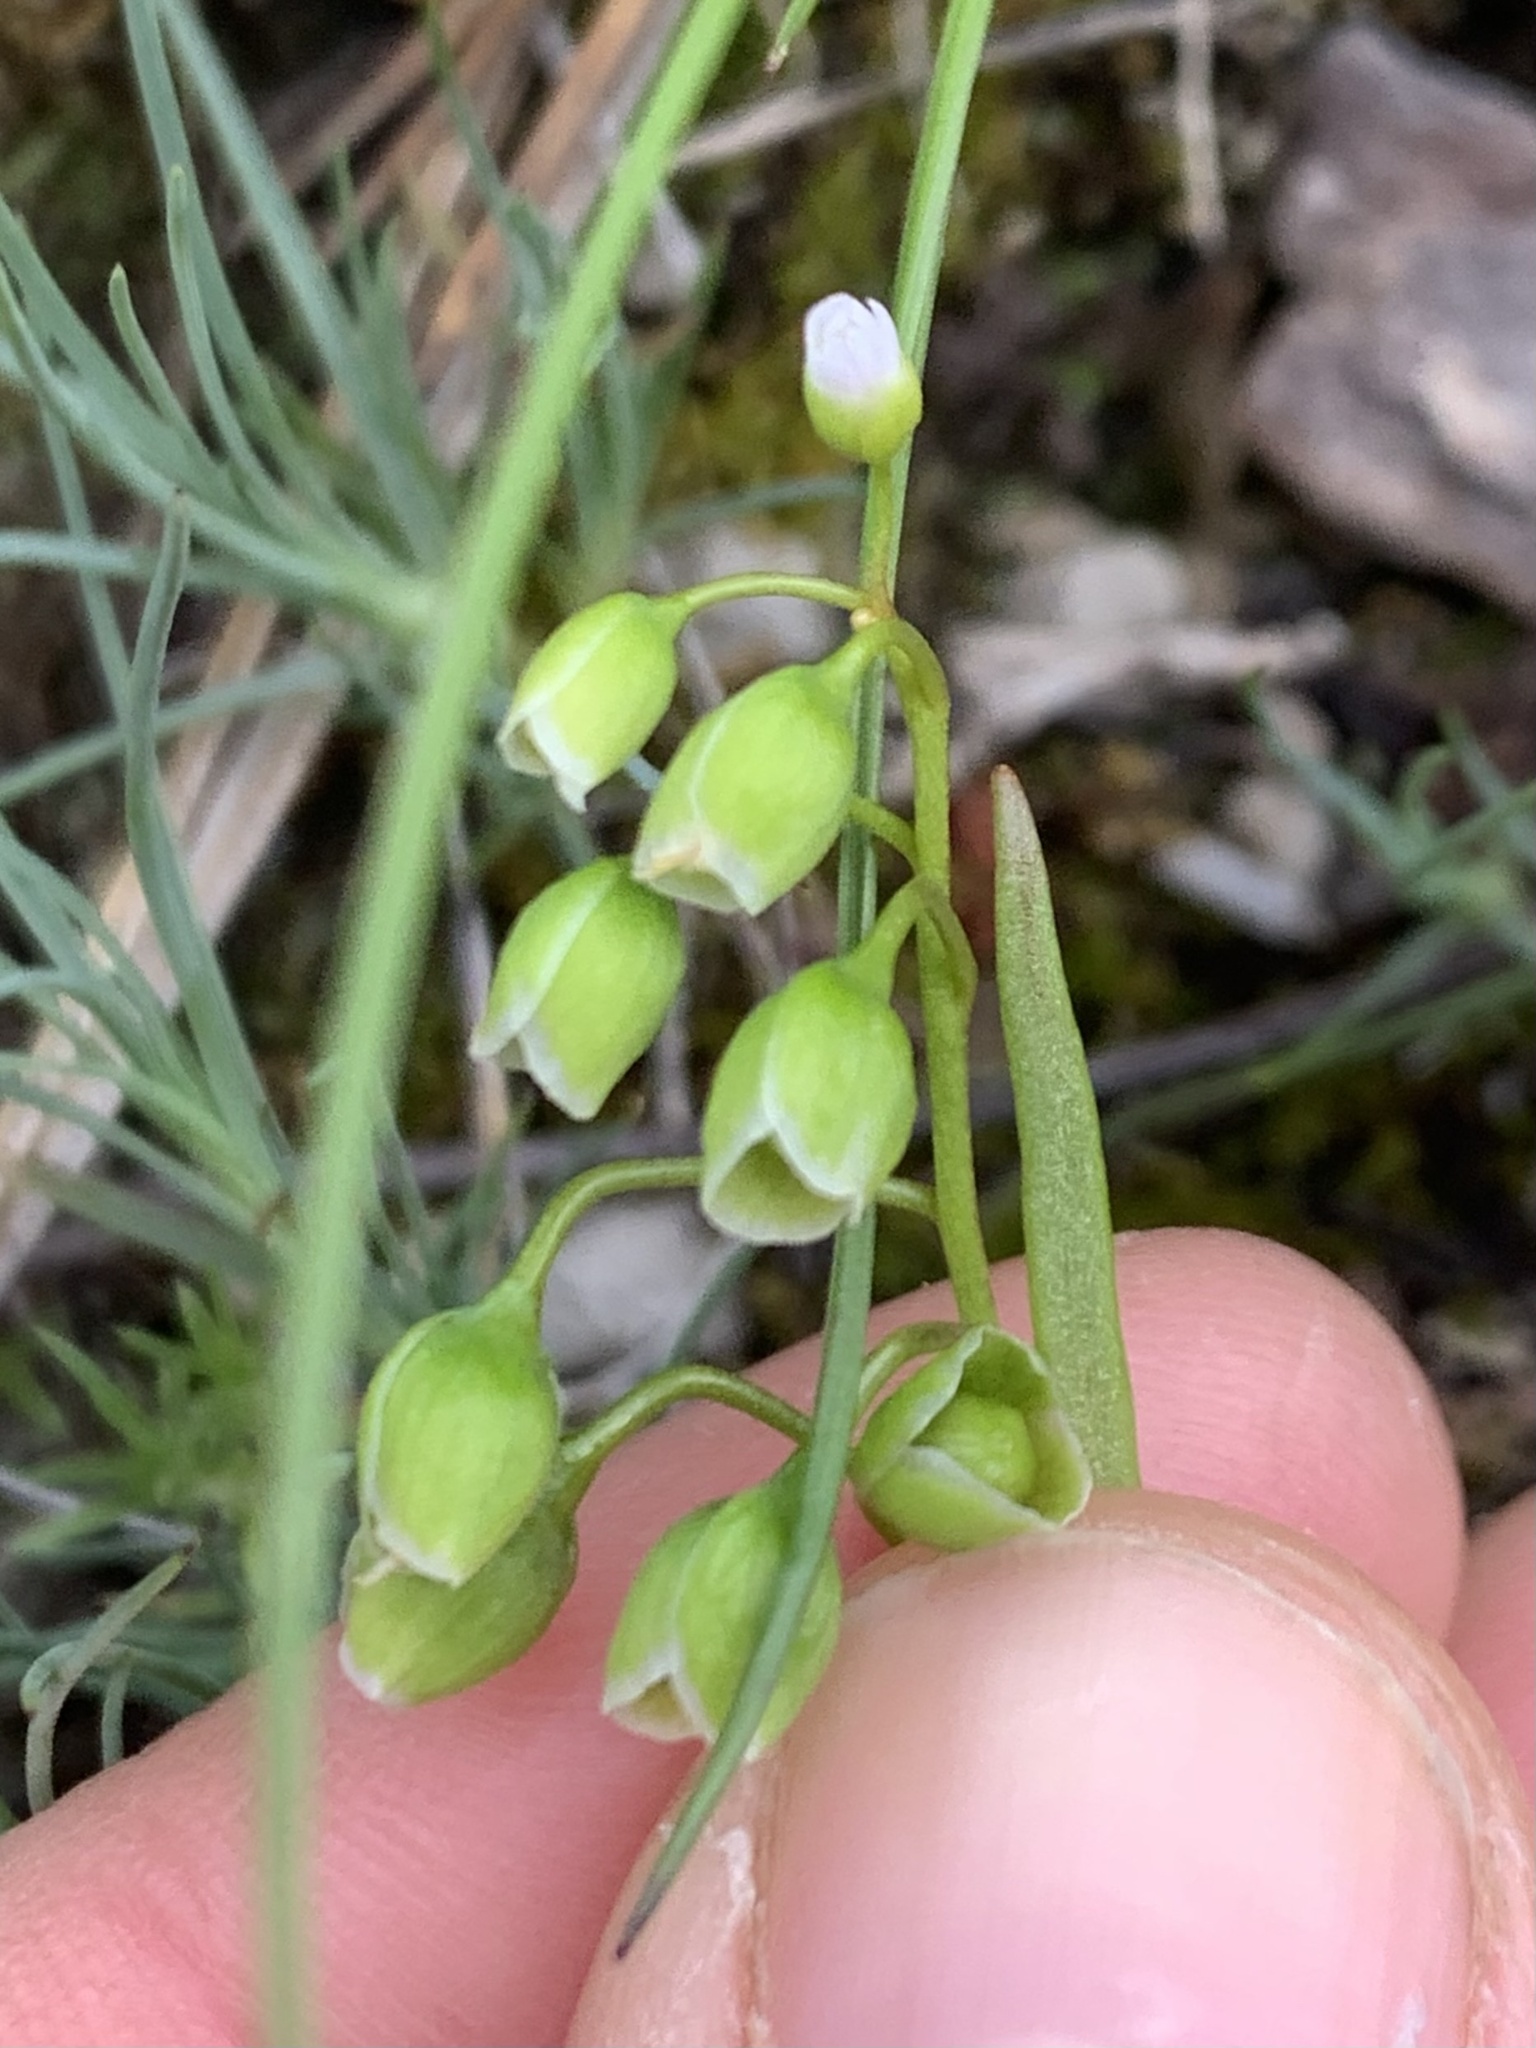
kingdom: Plantae
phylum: Tracheophyta
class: Magnoliopsida
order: Caryophyllales
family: Montiaceae
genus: Montia
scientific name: Montia linearis
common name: Narrow-leaf montia
